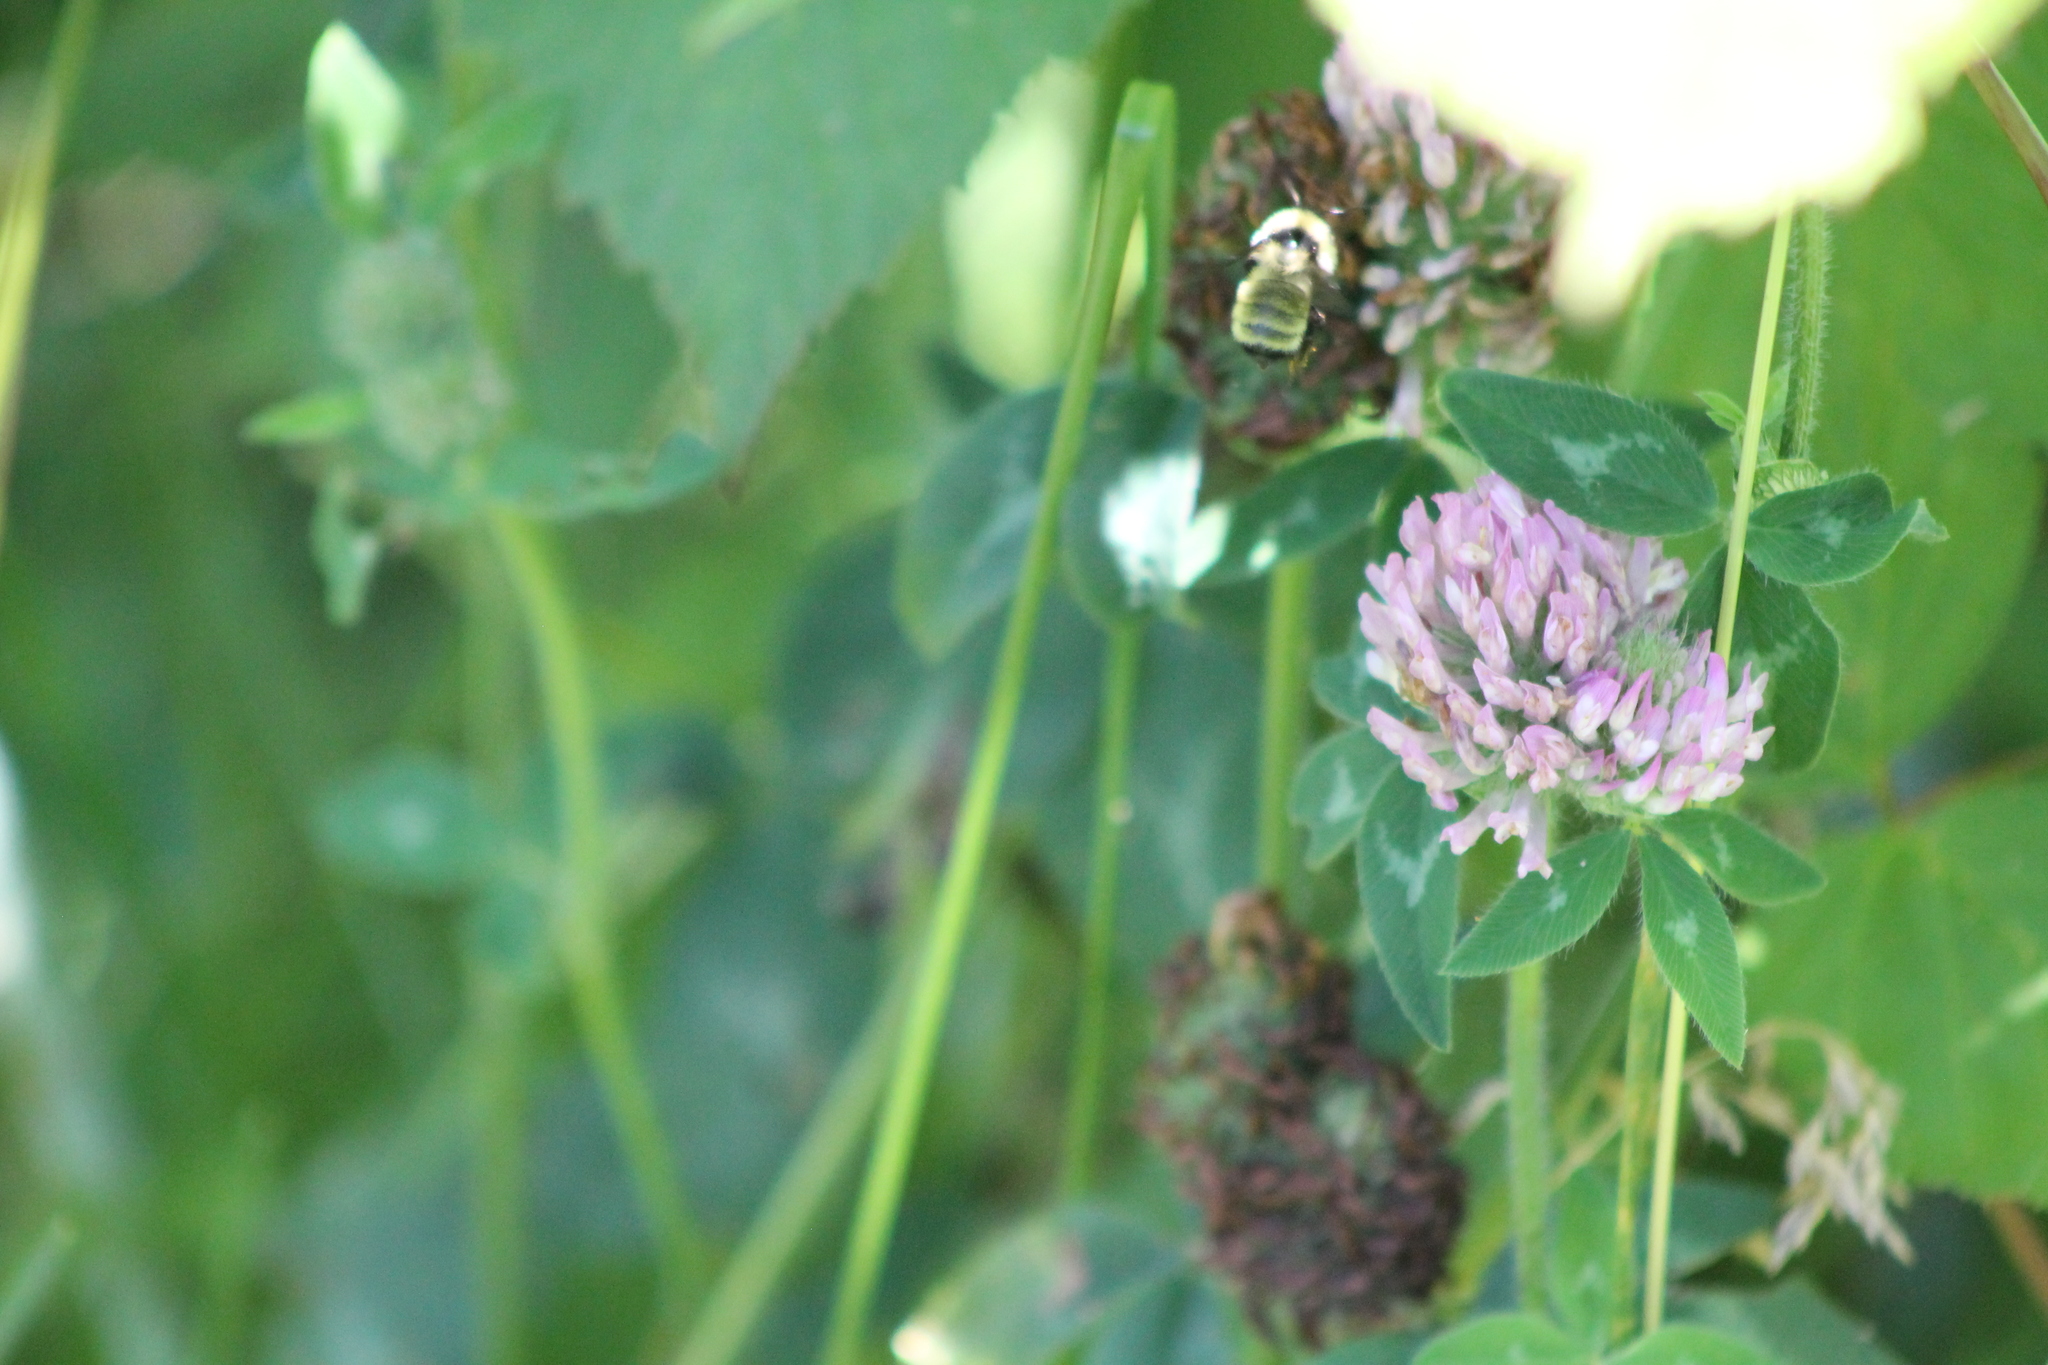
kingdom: Animalia
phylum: Arthropoda
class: Insecta
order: Hymenoptera
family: Apidae
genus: Bombus
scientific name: Bombus fervidus
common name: Yellow bumble bee
